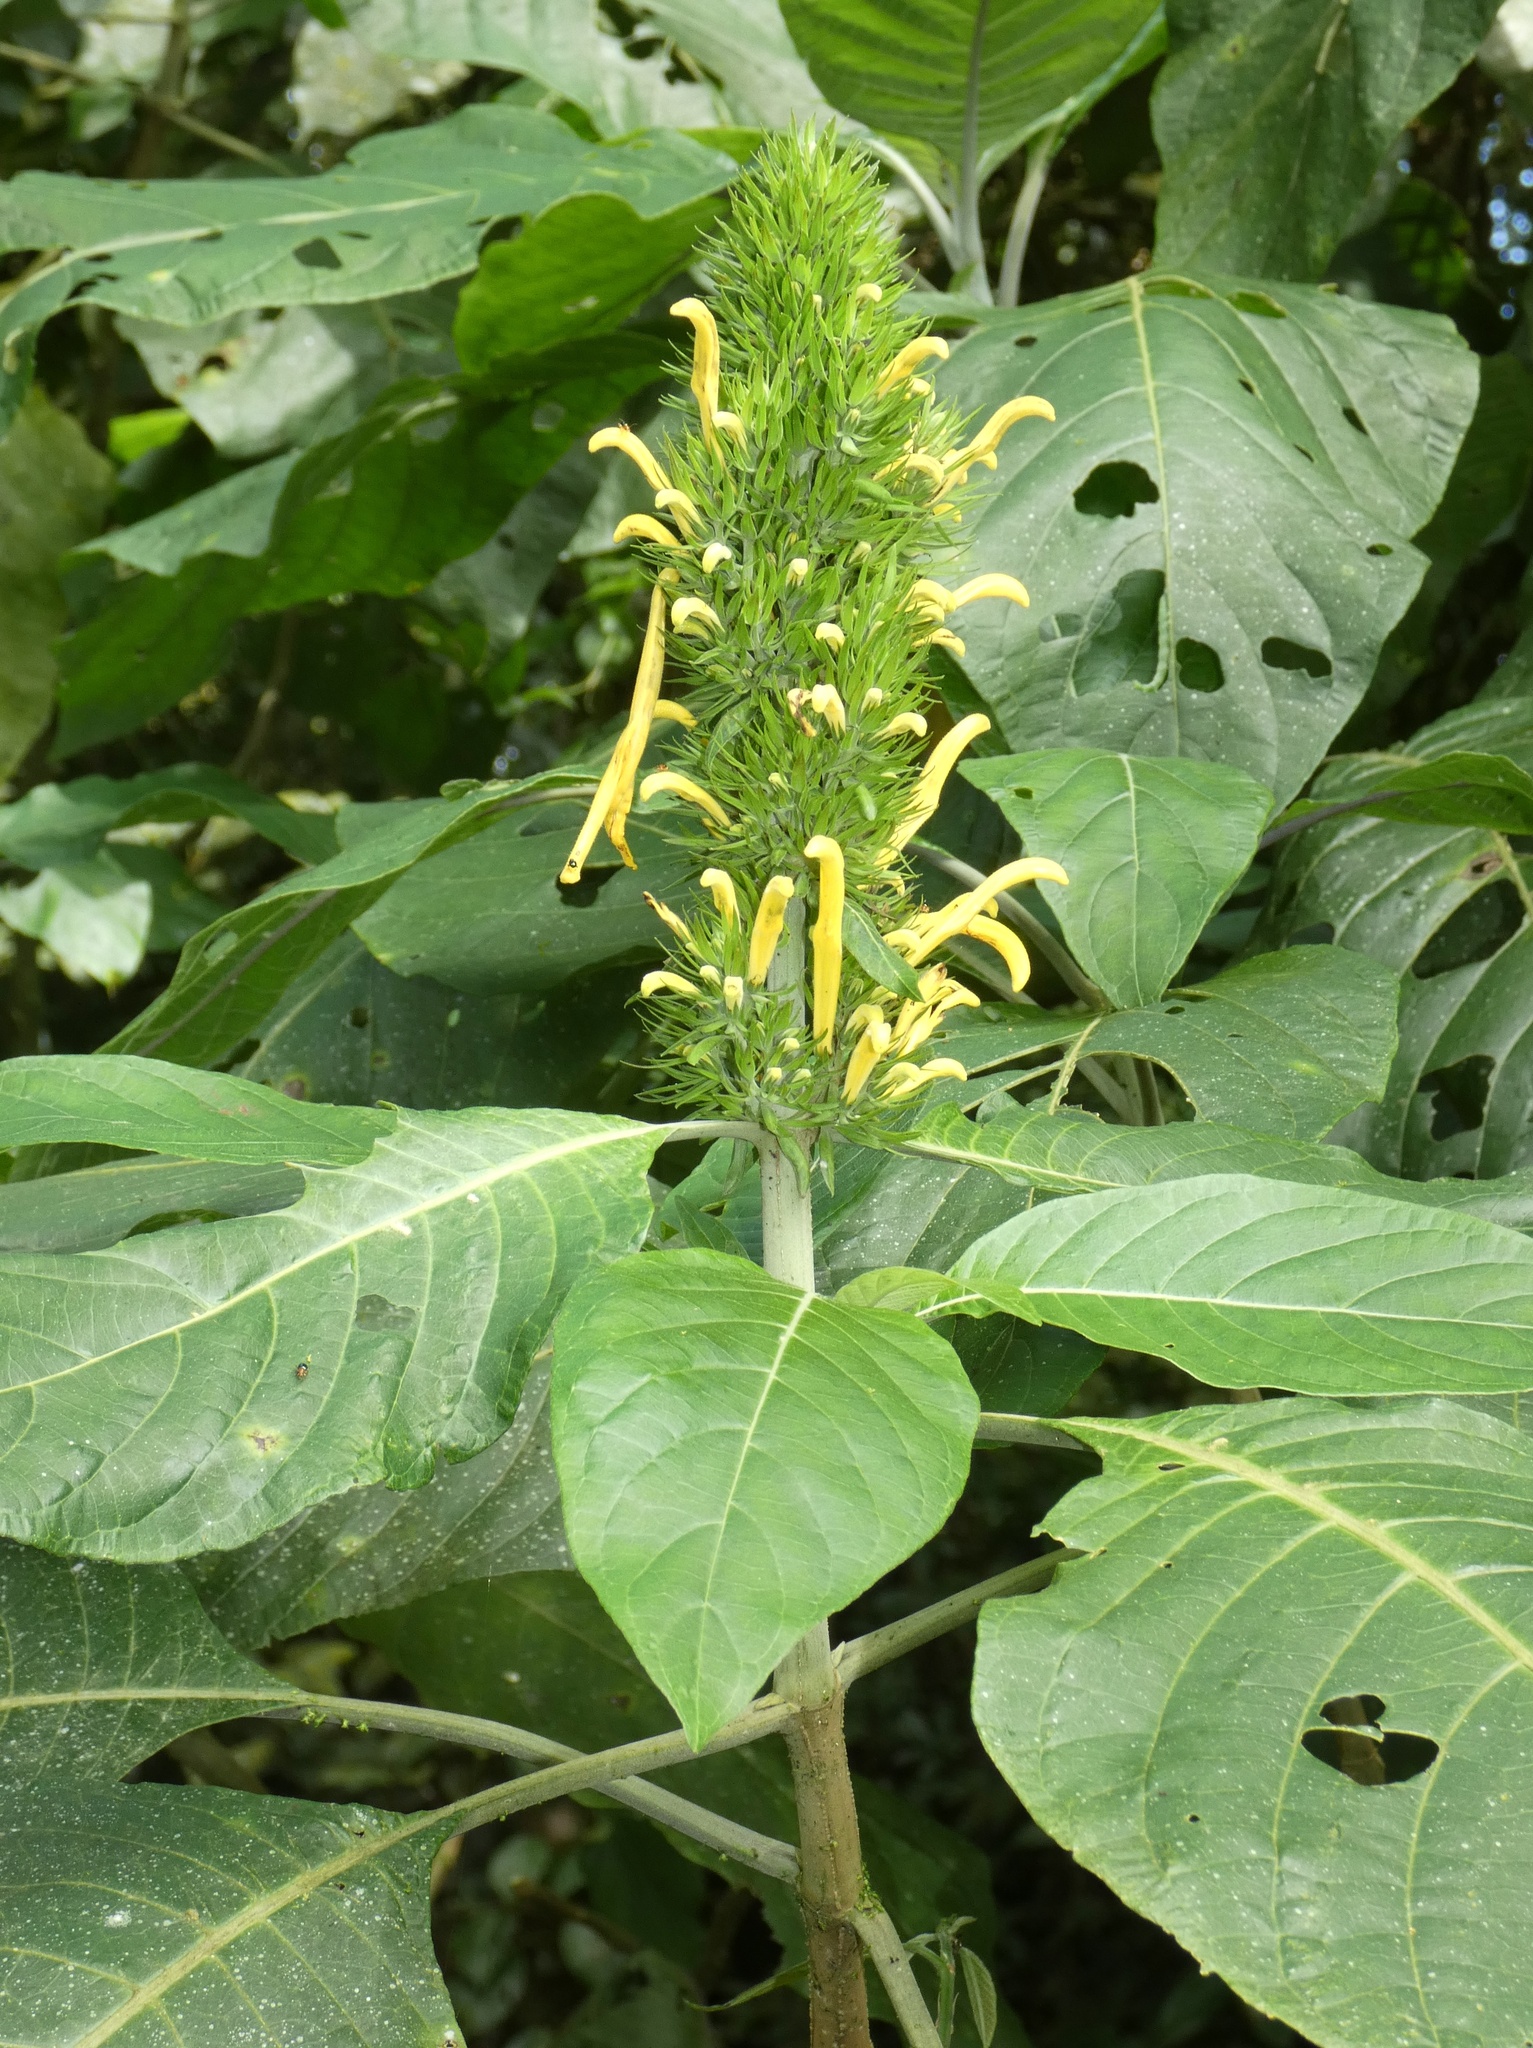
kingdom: Plantae
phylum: Tracheophyta
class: Magnoliopsida
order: Lamiales
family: Acanthaceae
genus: Justicia
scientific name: Justicia aurea
